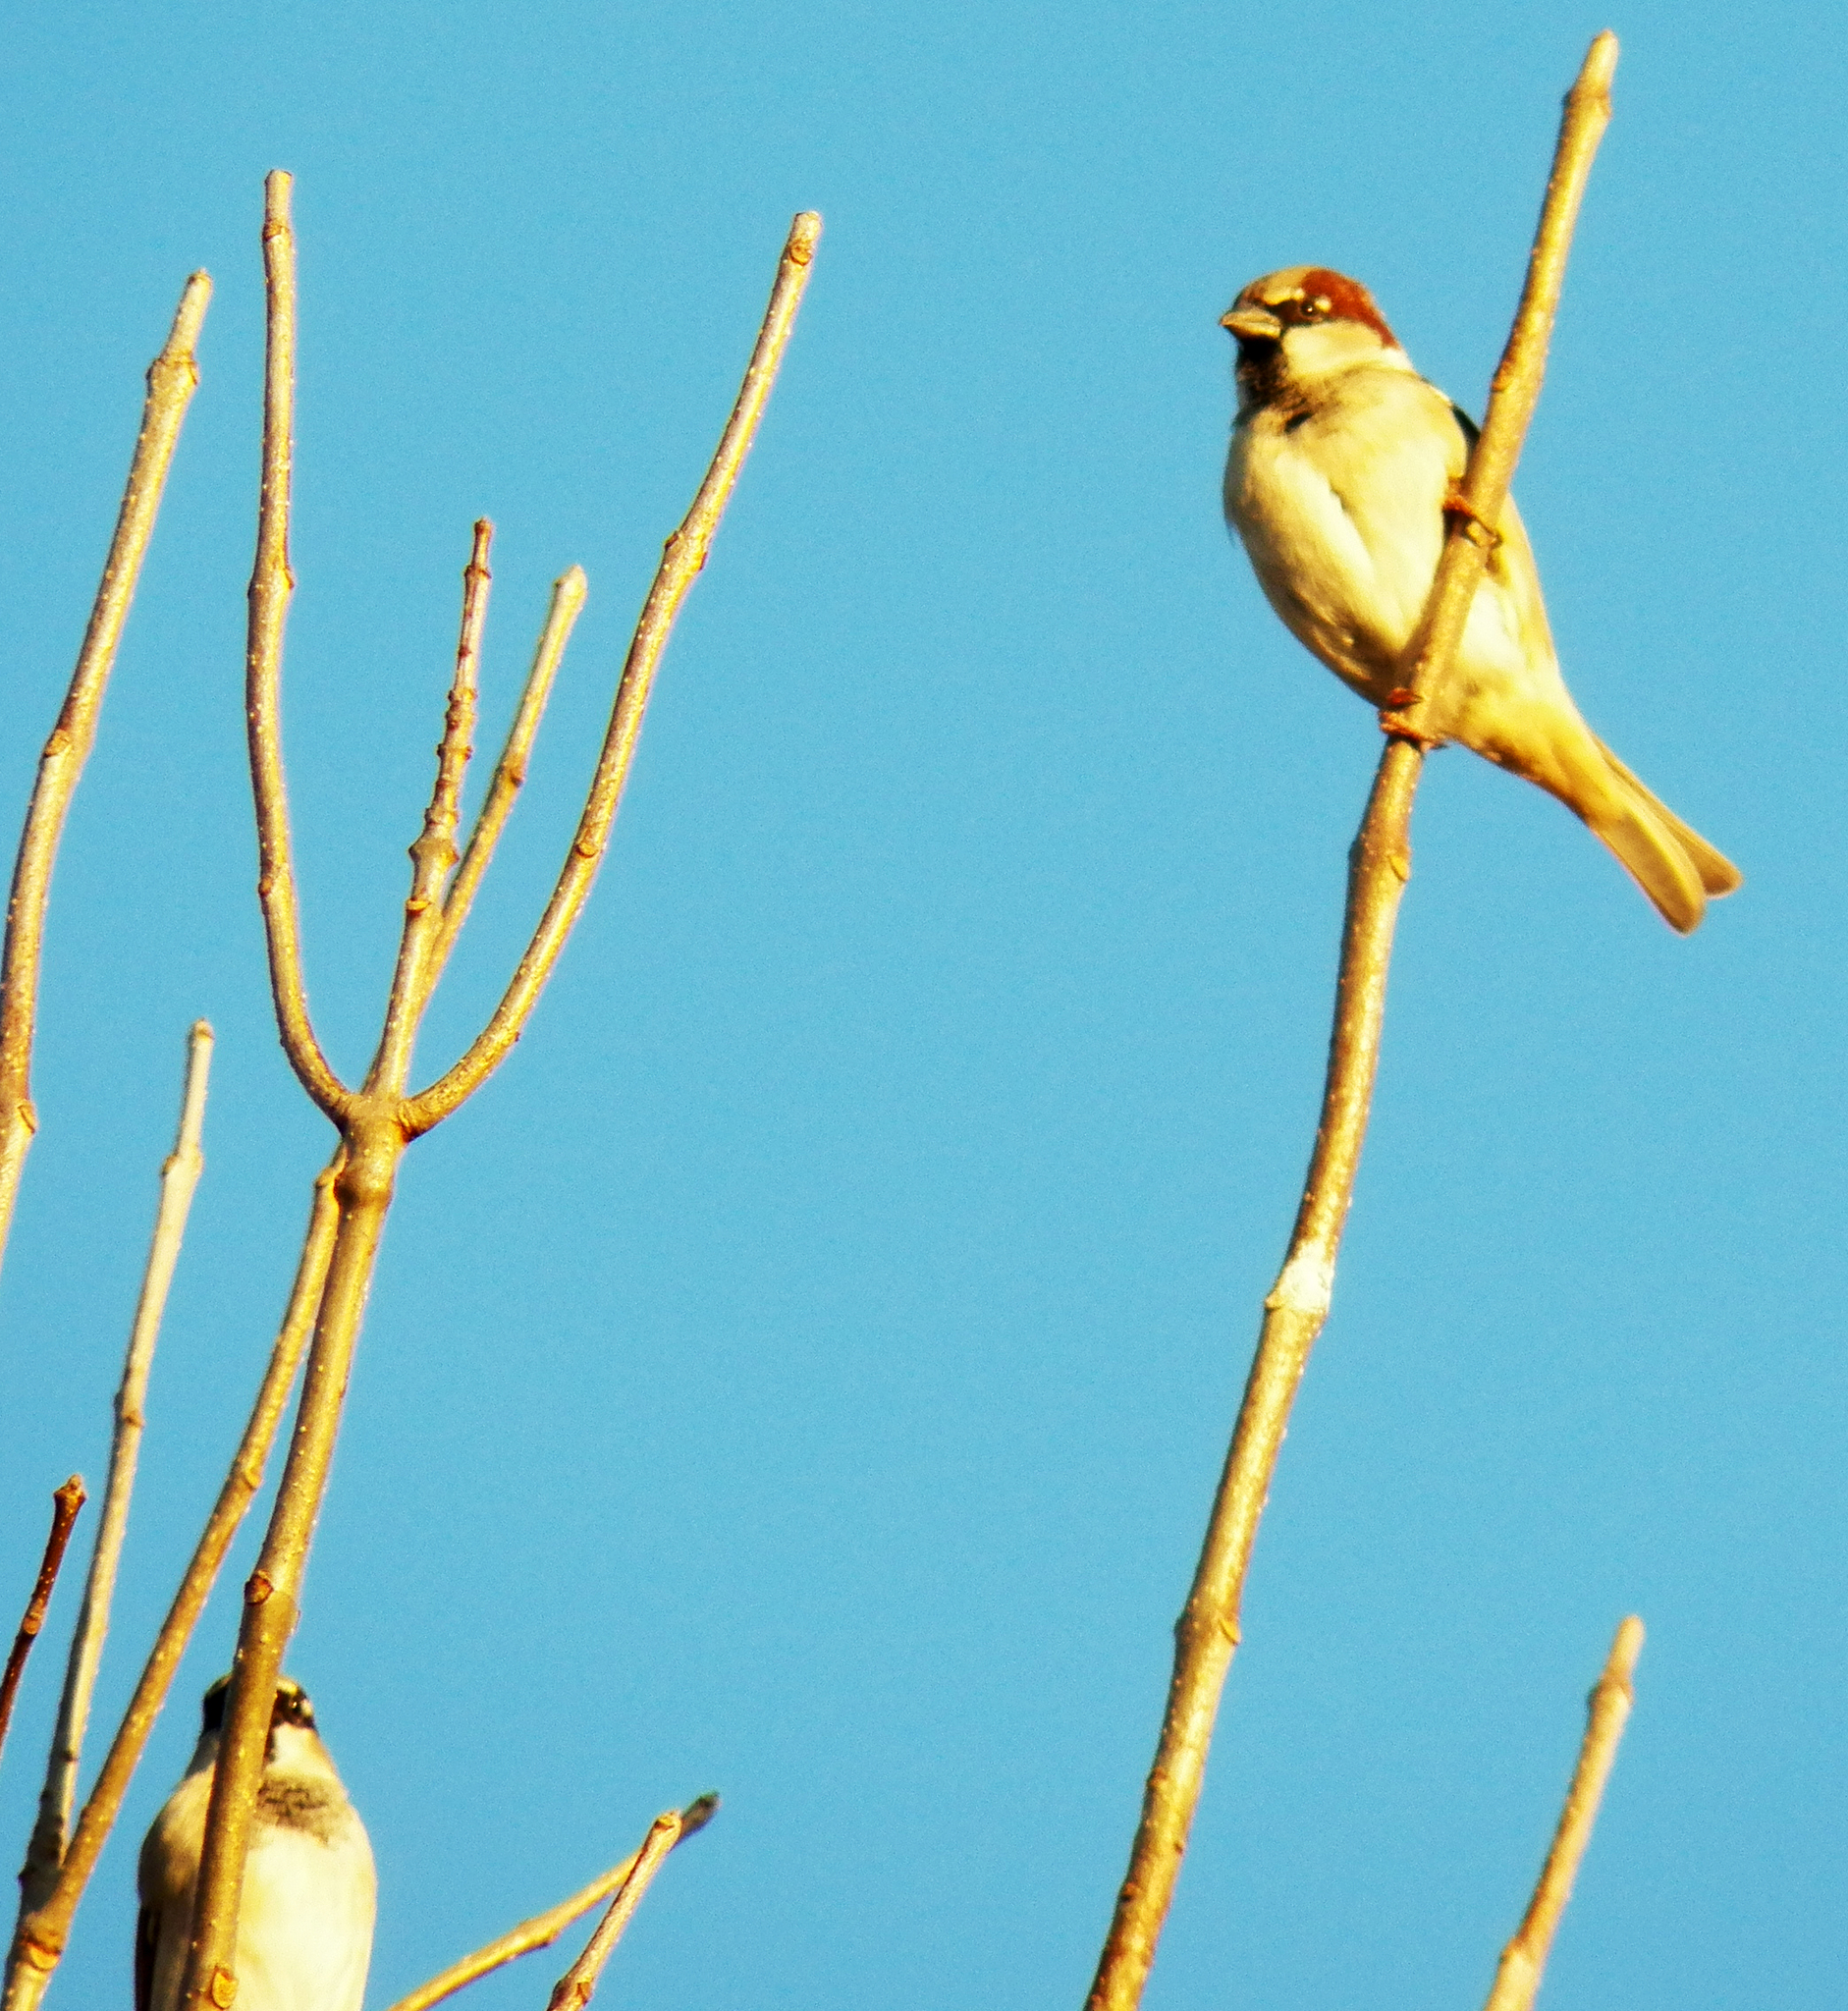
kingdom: Animalia
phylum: Chordata
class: Aves
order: Passeriformes
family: Passeridae
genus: Passer
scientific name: Passer domesticus
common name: House sparrow
